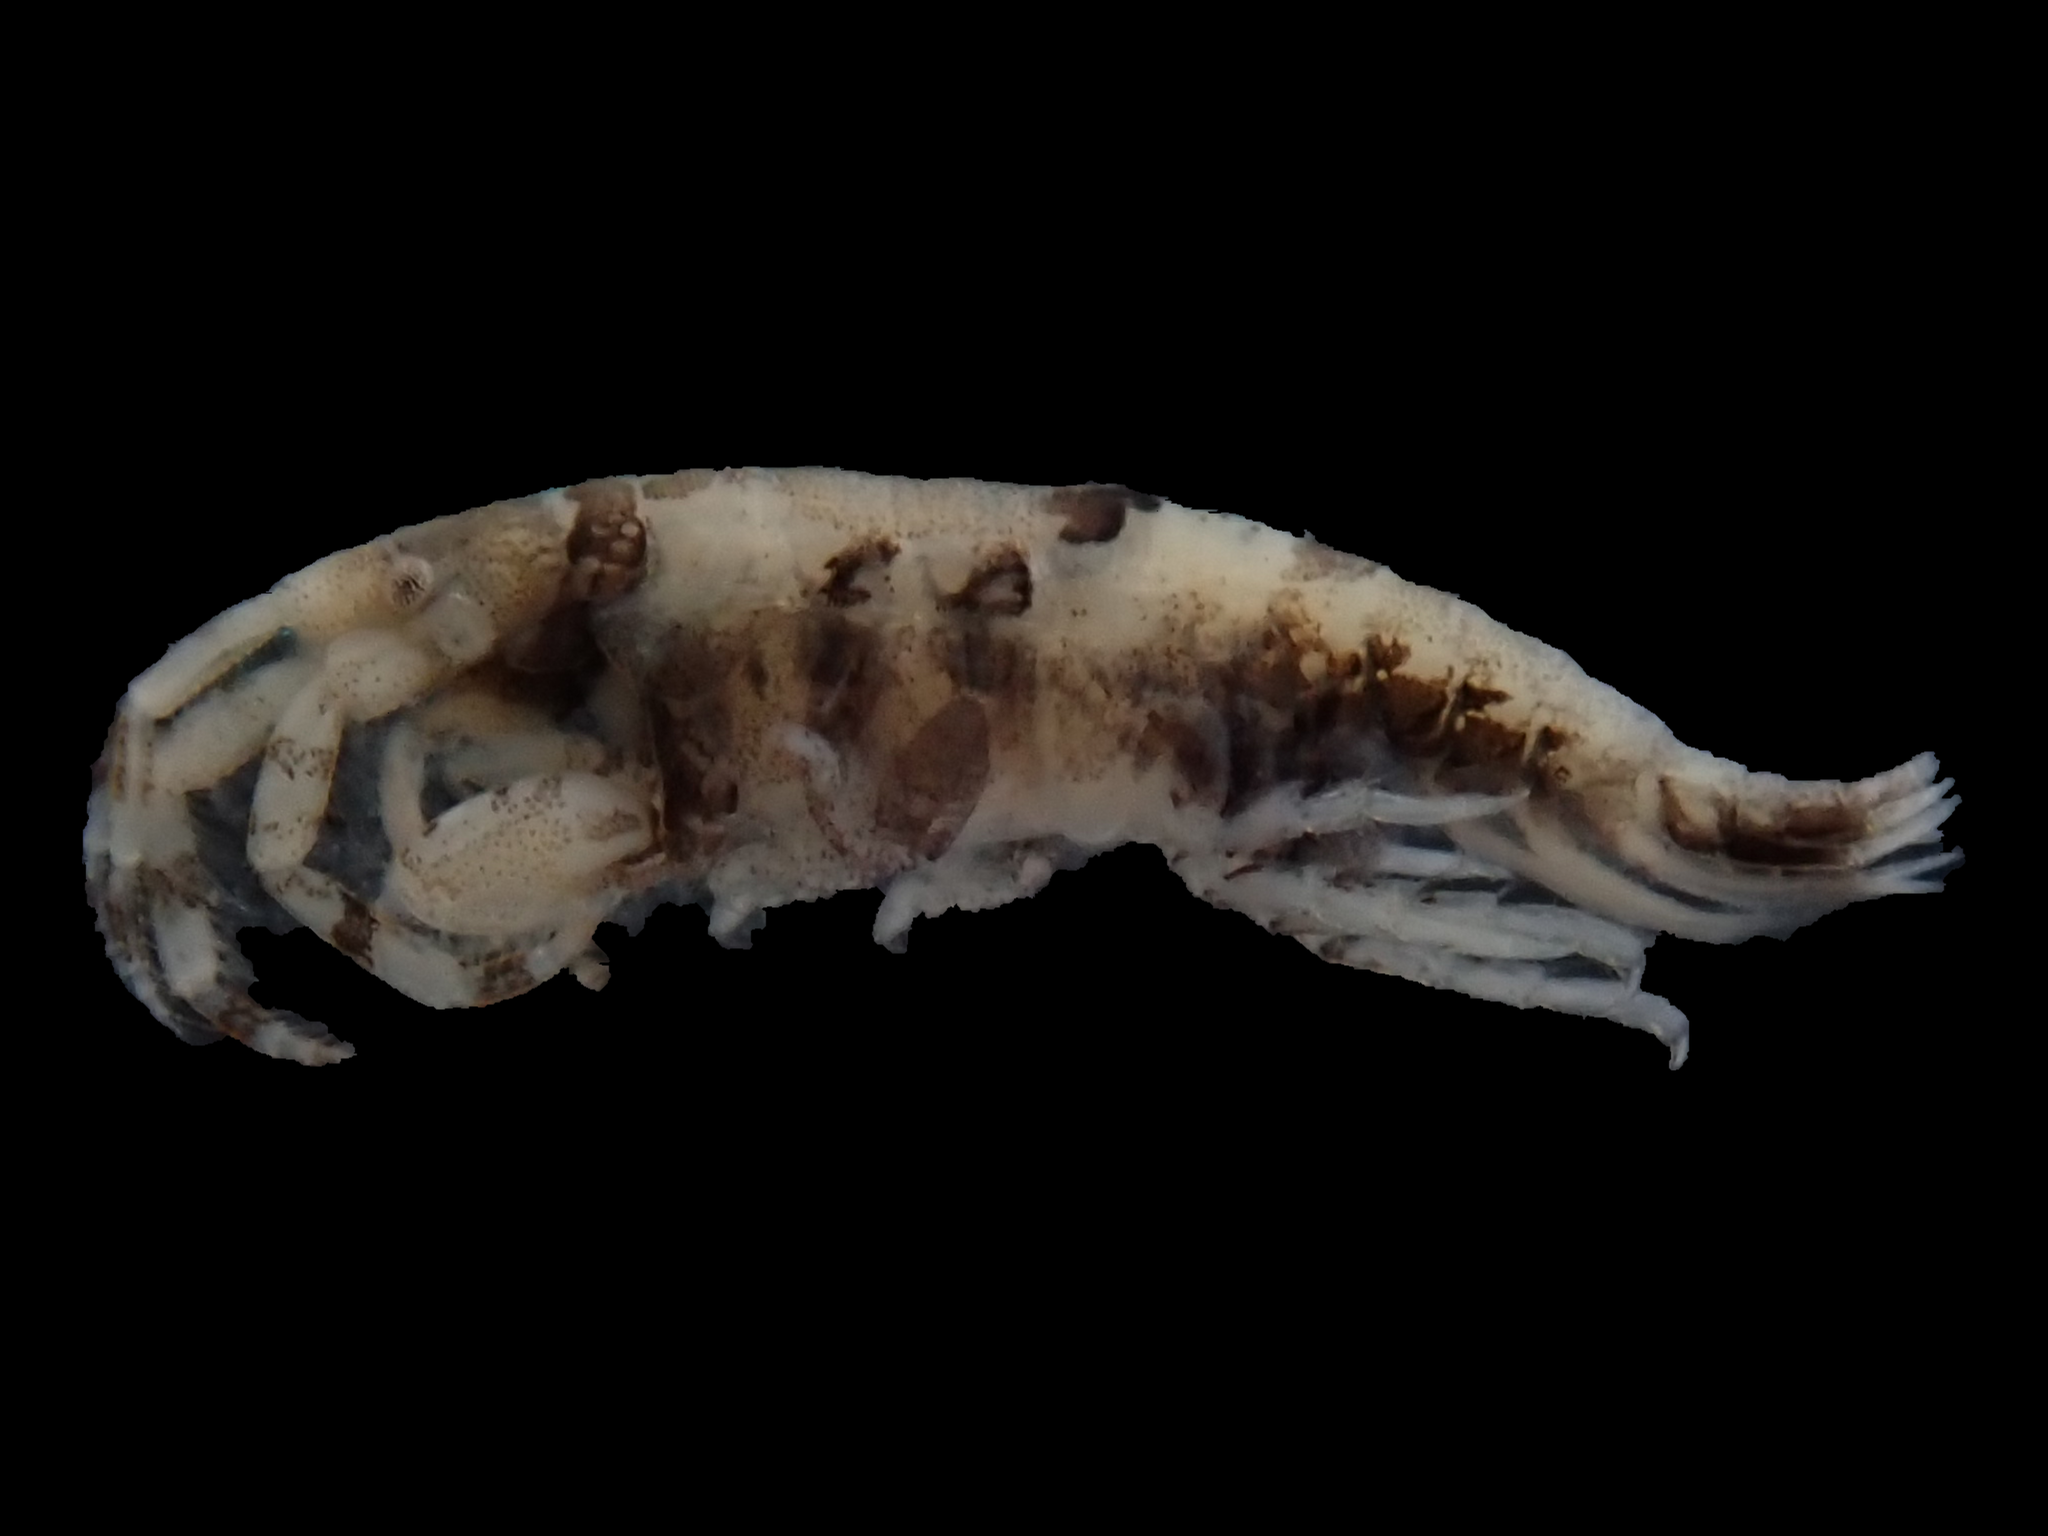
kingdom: Animalia
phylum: Arthropoda
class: Malacostraca
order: Amphipoda
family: Ischyroceridae
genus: Jassa
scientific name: Jassa slatteryi
